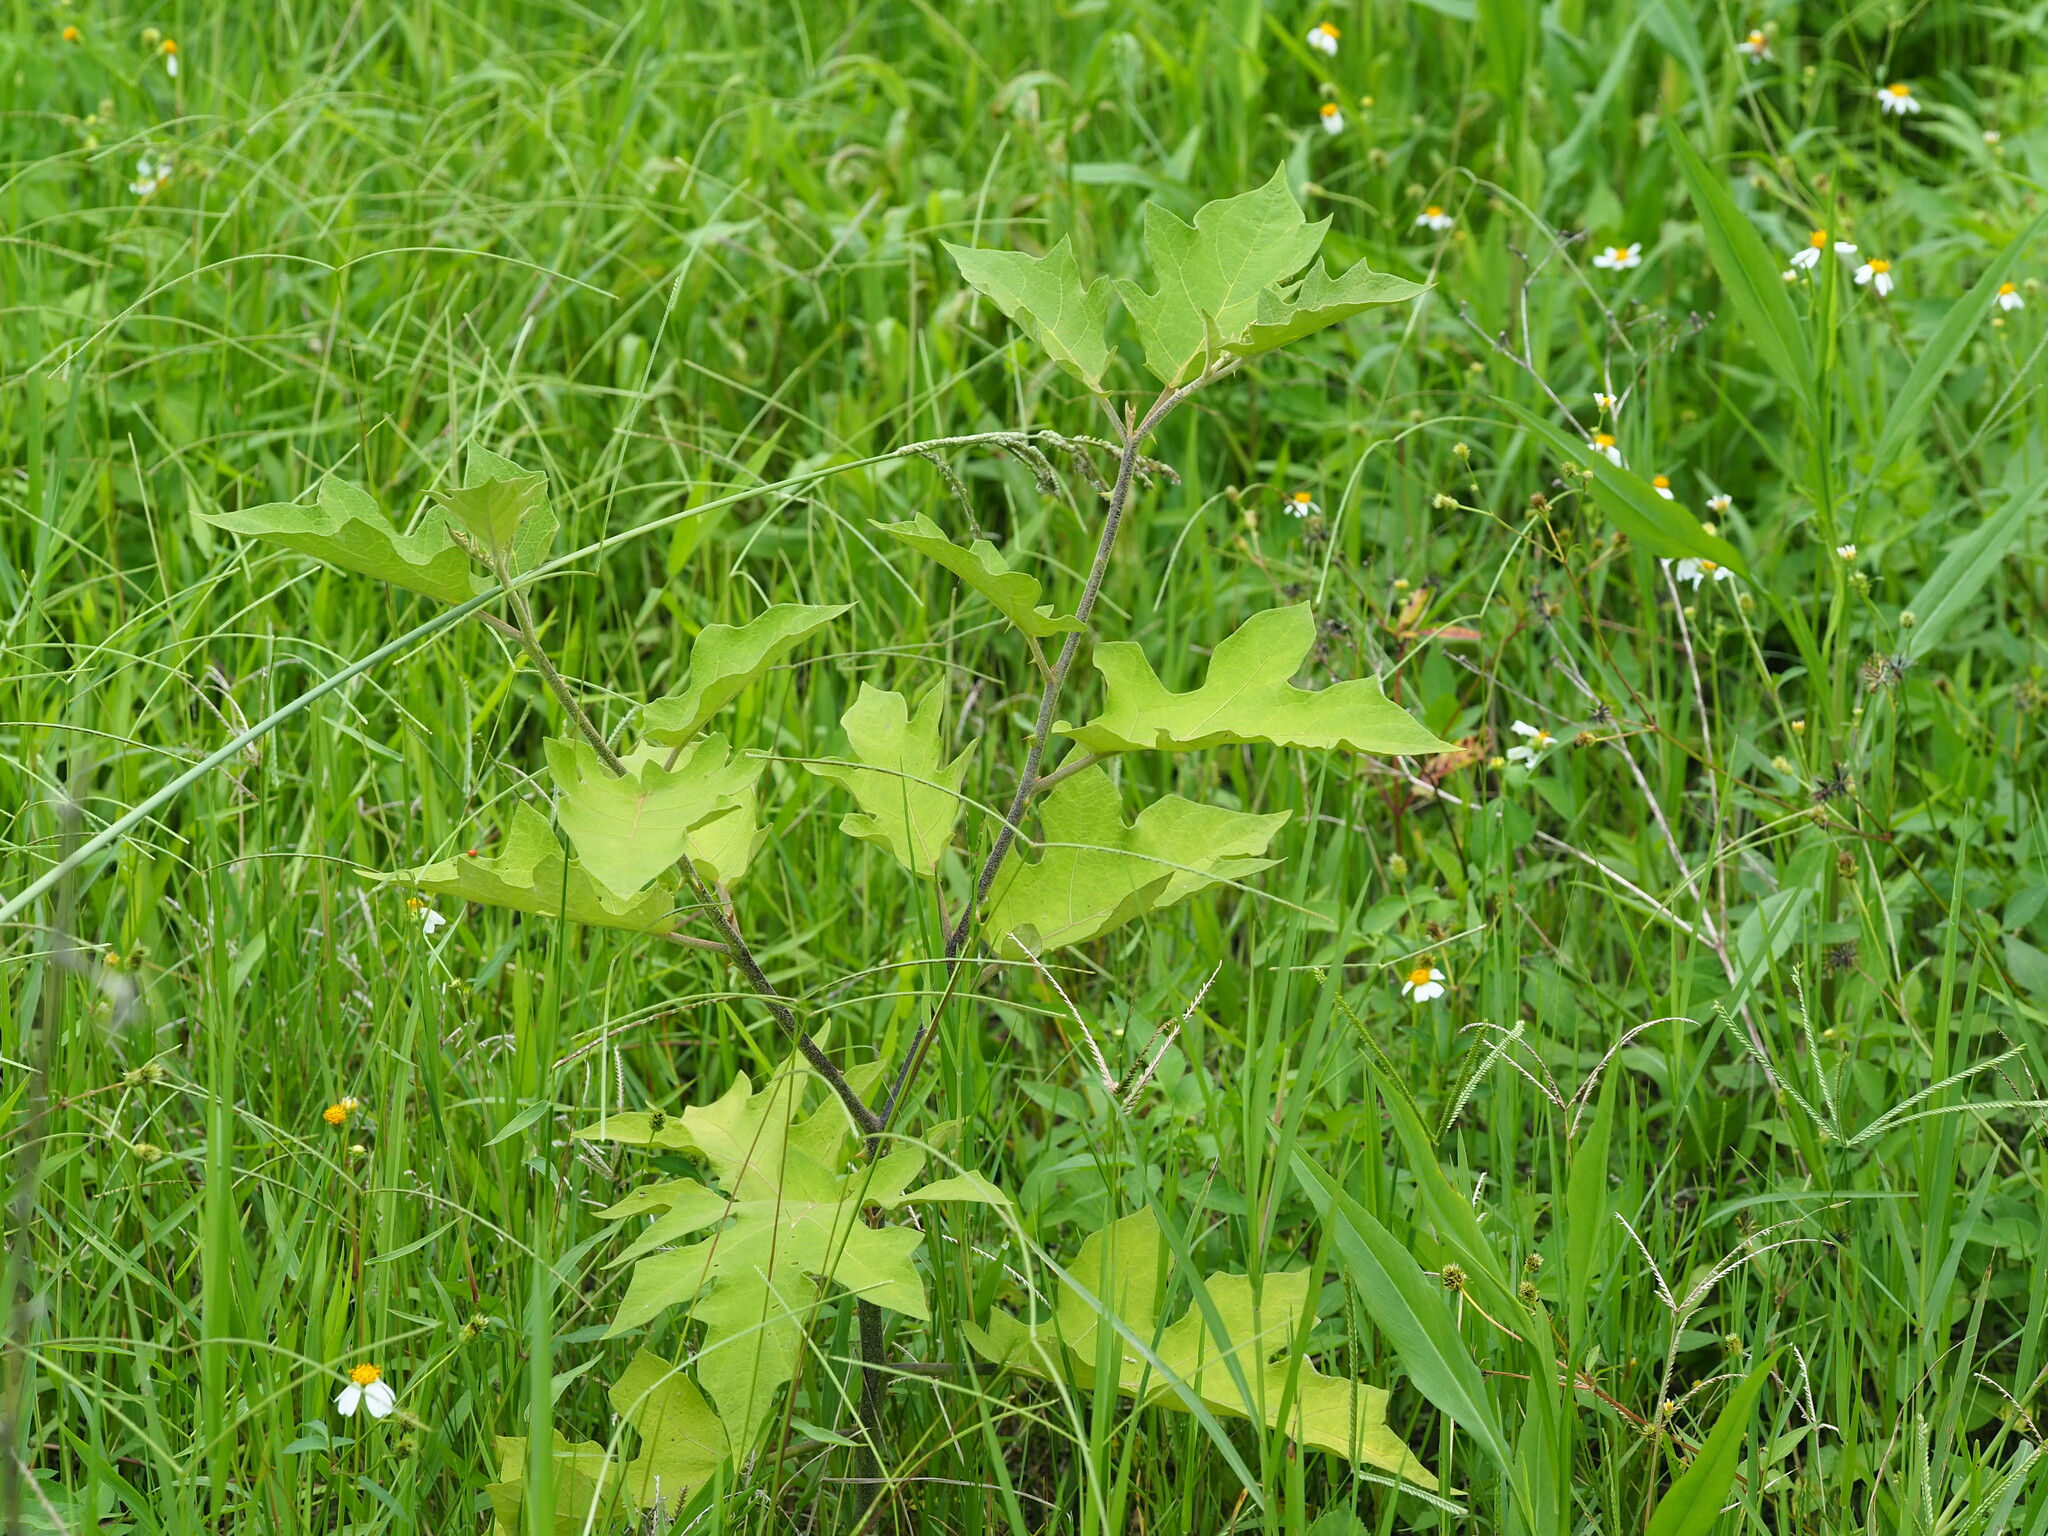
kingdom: Plantae
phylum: Tracheophyta
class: Magnoliopsida
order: Solanales
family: Solanaceae
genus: Solanum
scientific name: Solanum torvum
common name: Turkey berry
